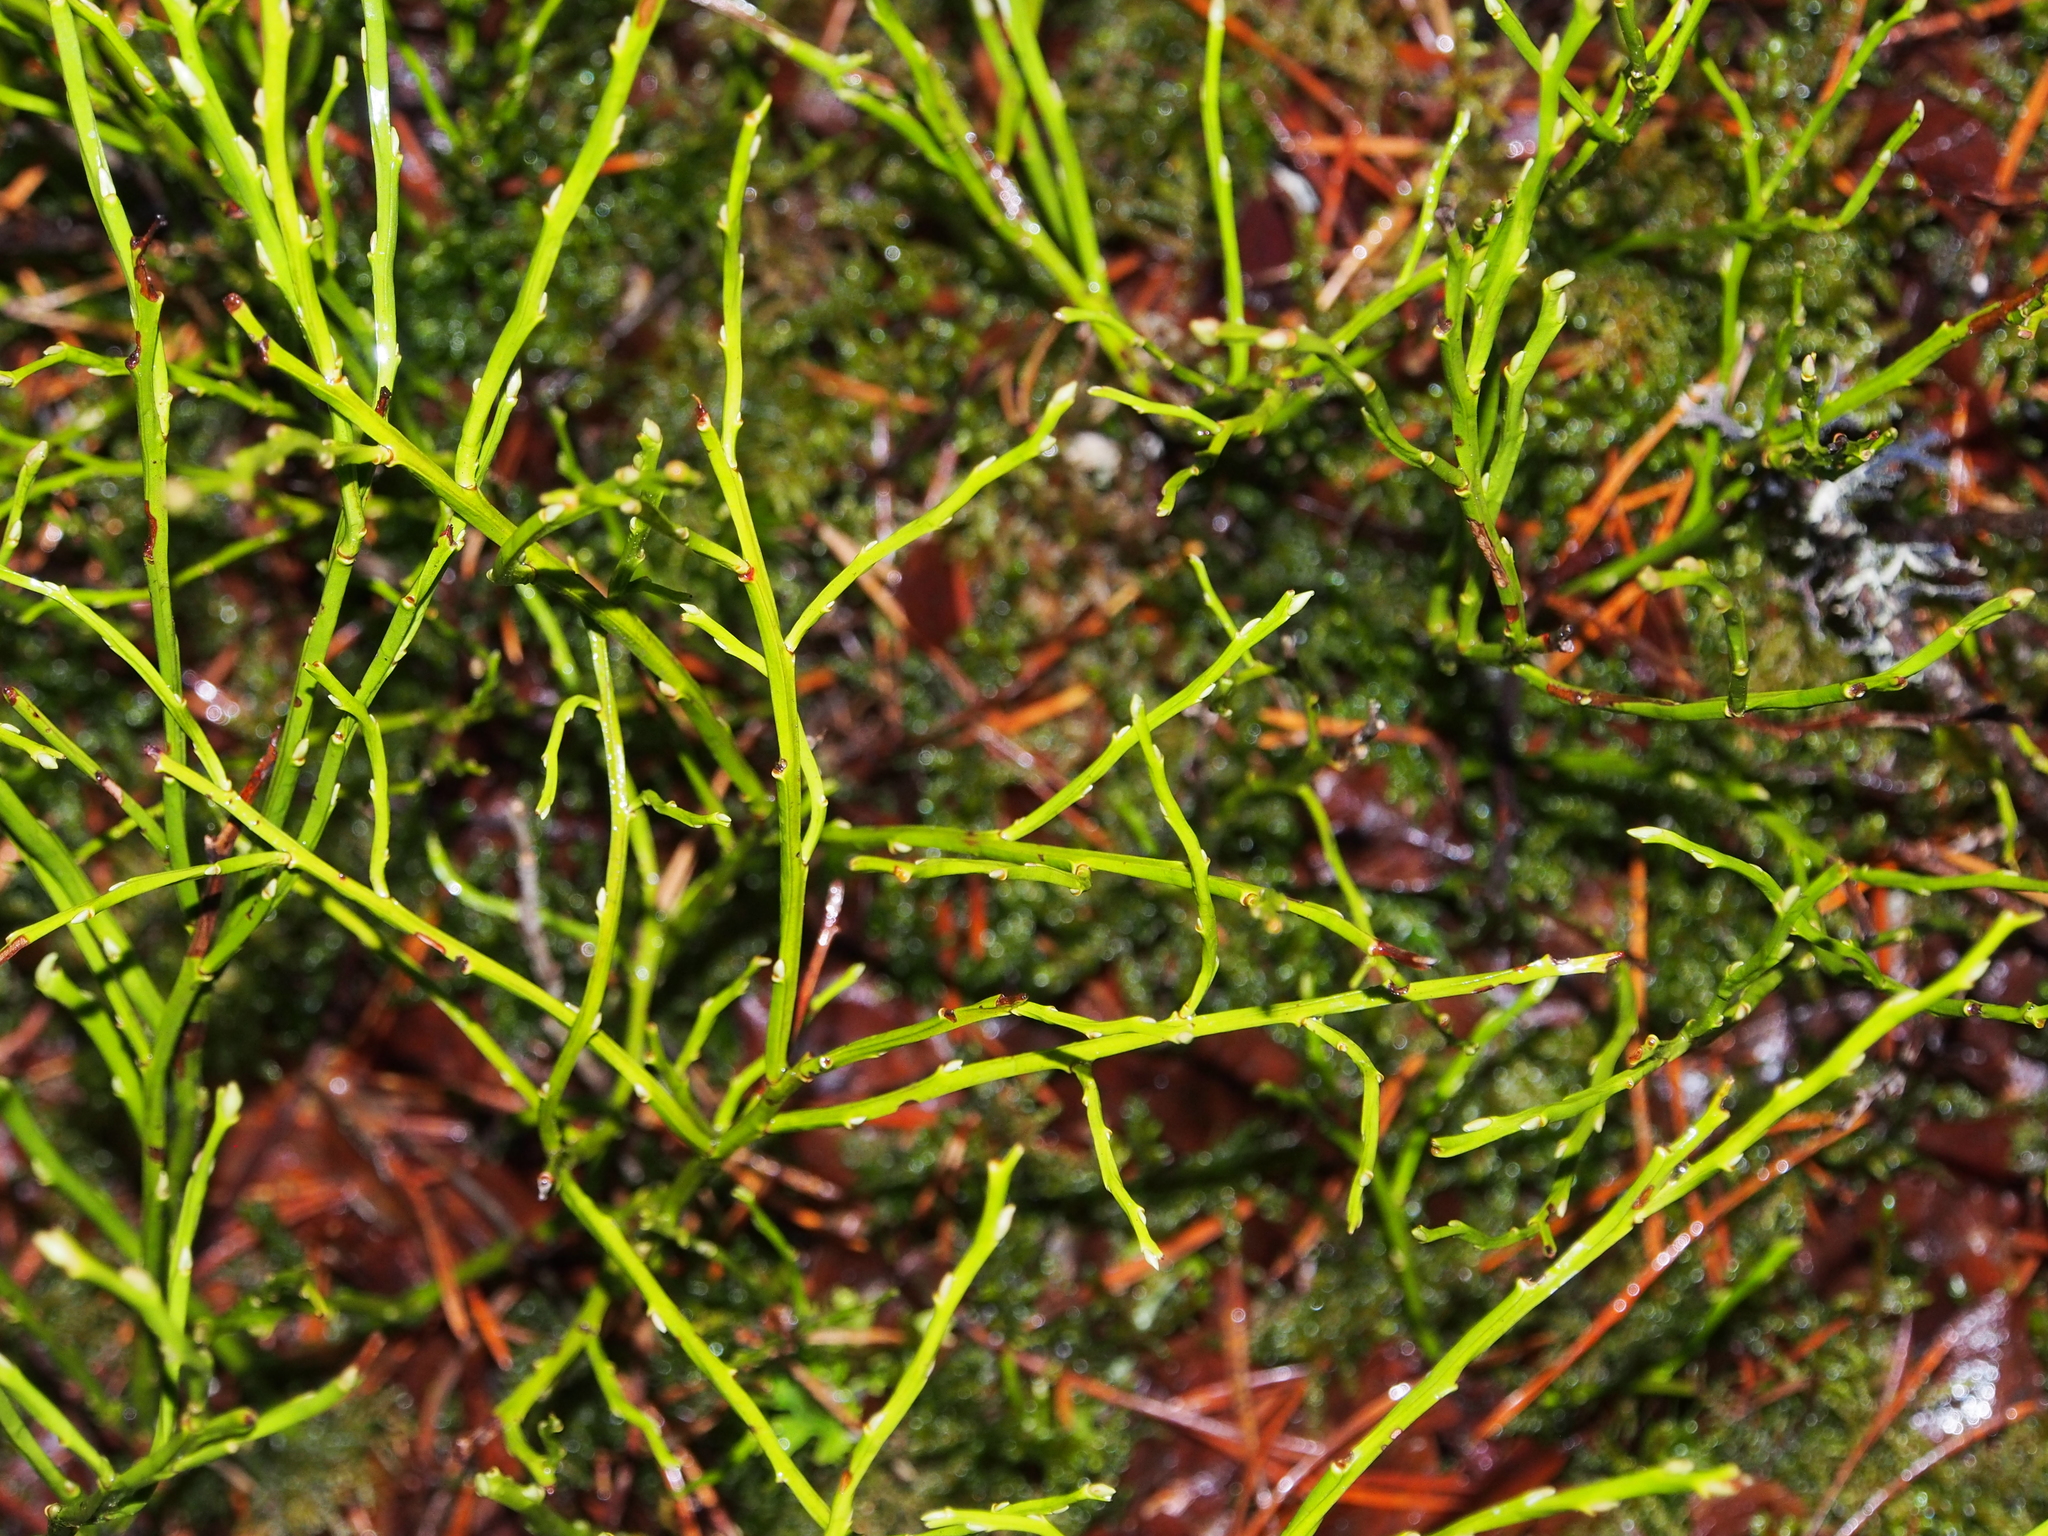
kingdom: Plantae
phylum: Tracheophyta
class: Magnoliopsida
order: Ericales
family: Ericaceae
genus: Vaccinium
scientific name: Vaccinium myrtillus
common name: Bilberry
